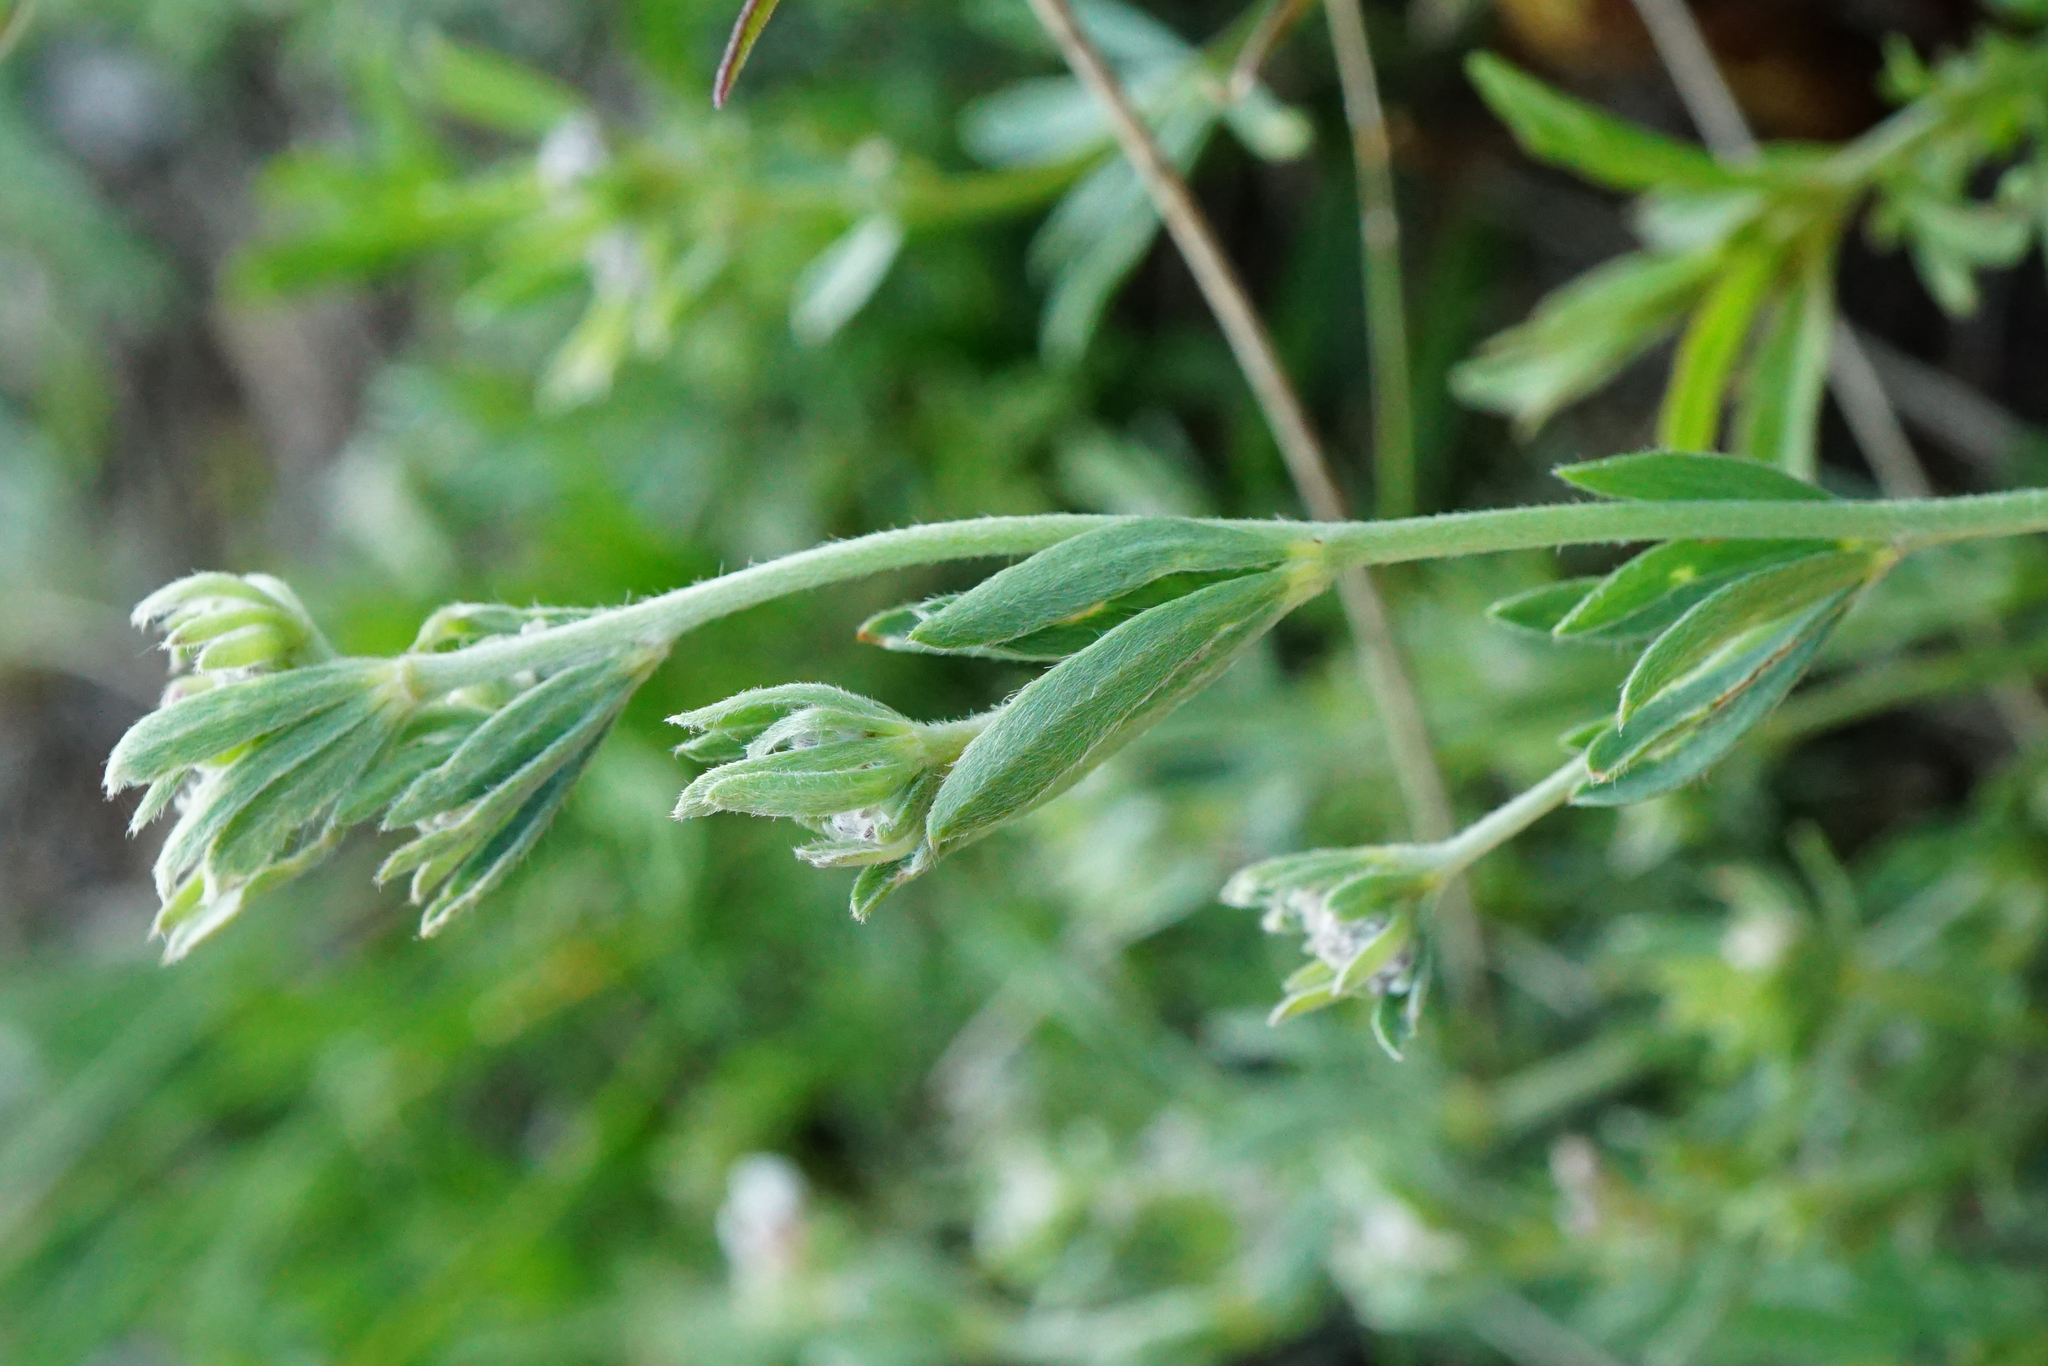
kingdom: Plantae
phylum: Tracheophyta
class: Magnoliopsida
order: Fabales
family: Fabaceae
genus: Lotus
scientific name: Lotus germanicus
